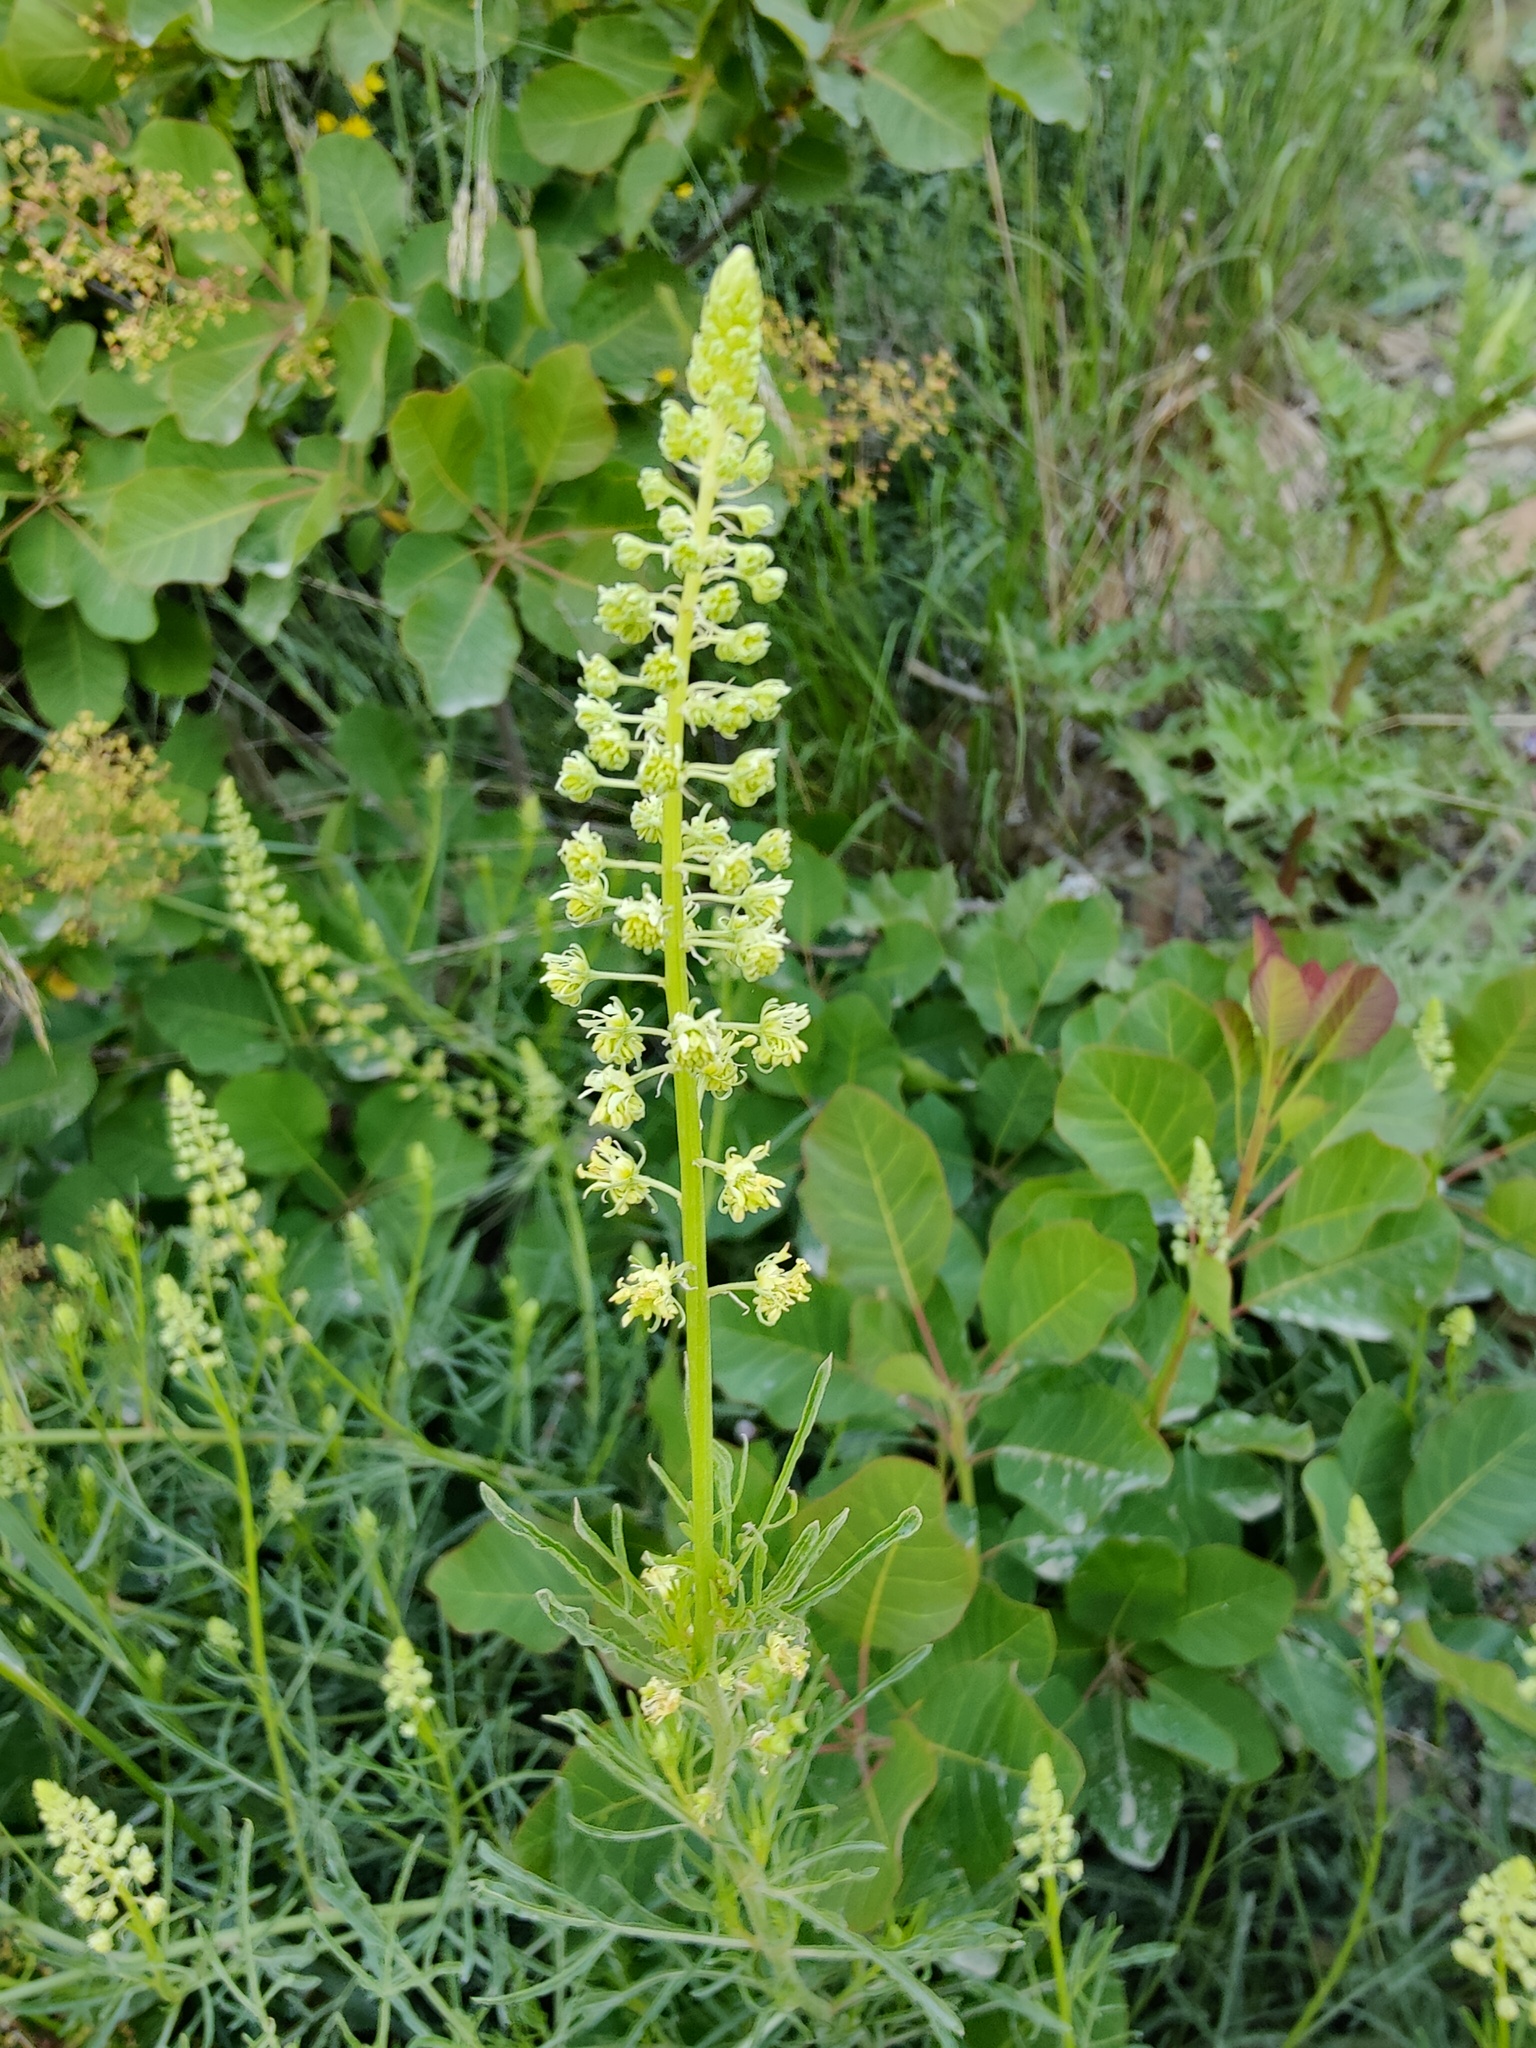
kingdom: Plantae
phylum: Tracheophyta
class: Magnoliopsida
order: Brassicales
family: Resedaceae
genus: Reseda
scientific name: Reseda lutea
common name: Wild mignonette
